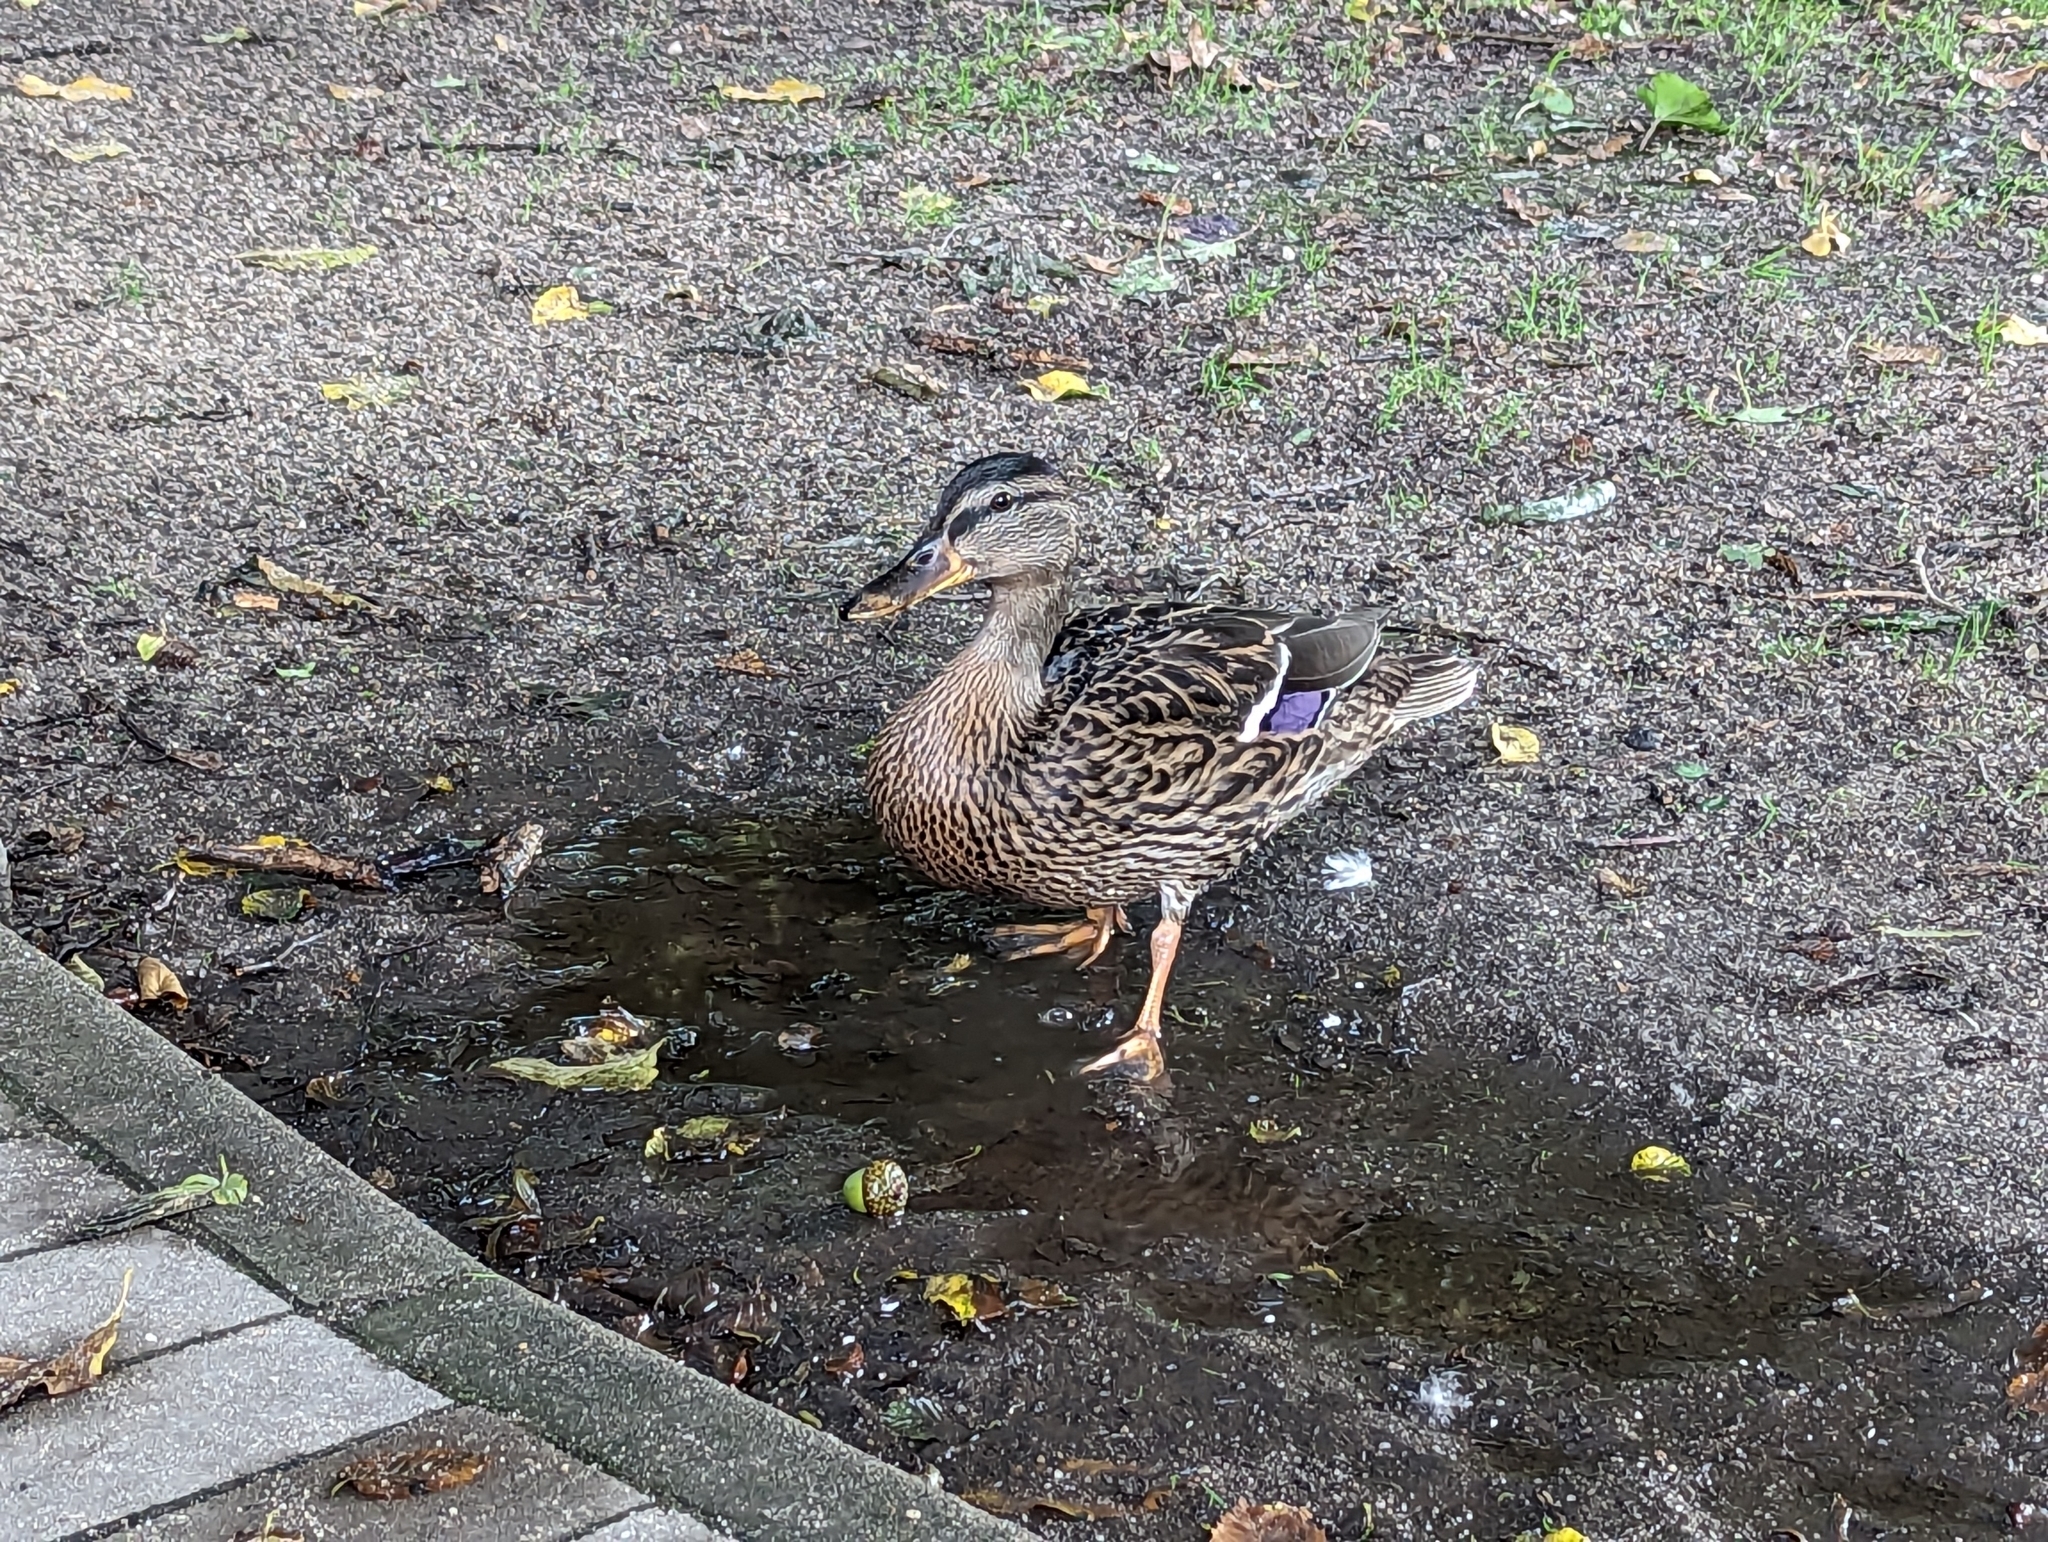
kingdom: Animalia
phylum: Chordata
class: Aves
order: Anseriformes
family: Anatidae
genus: Anas
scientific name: Anas platyrhynchos
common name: Mallard
